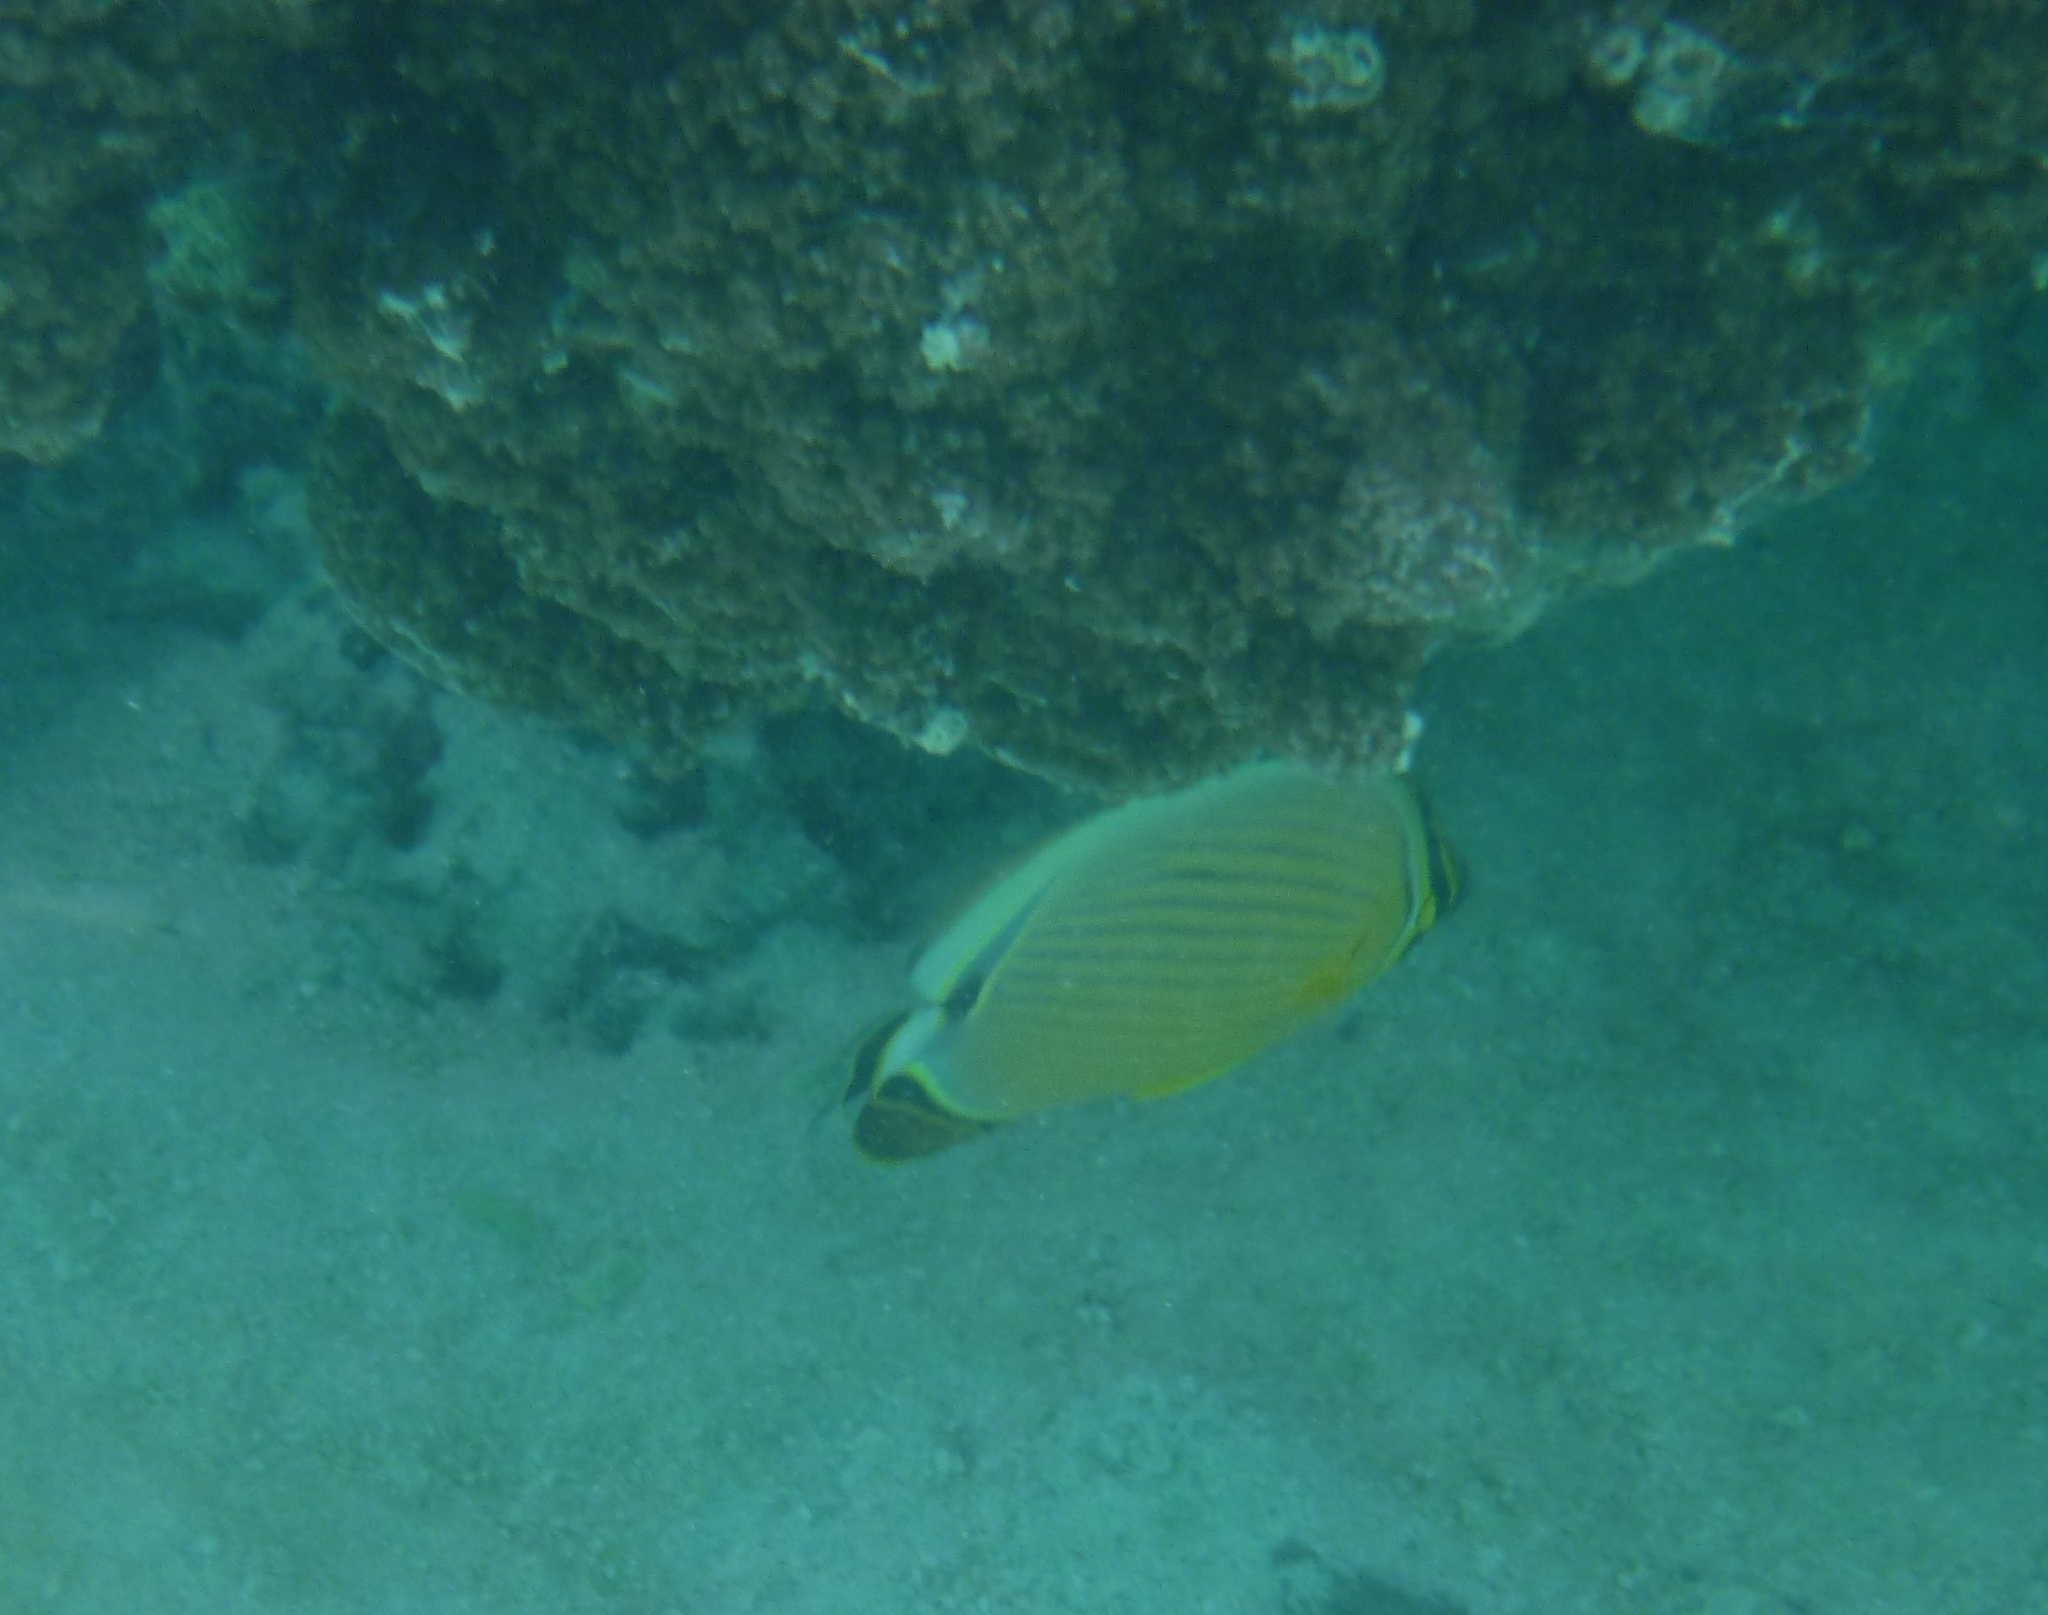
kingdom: Animalia
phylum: Chordata
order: Perciformes
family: Chaetodontidae
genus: Chaetodon
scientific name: Chaetodon lunulatus
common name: Redfin butterflyfish
